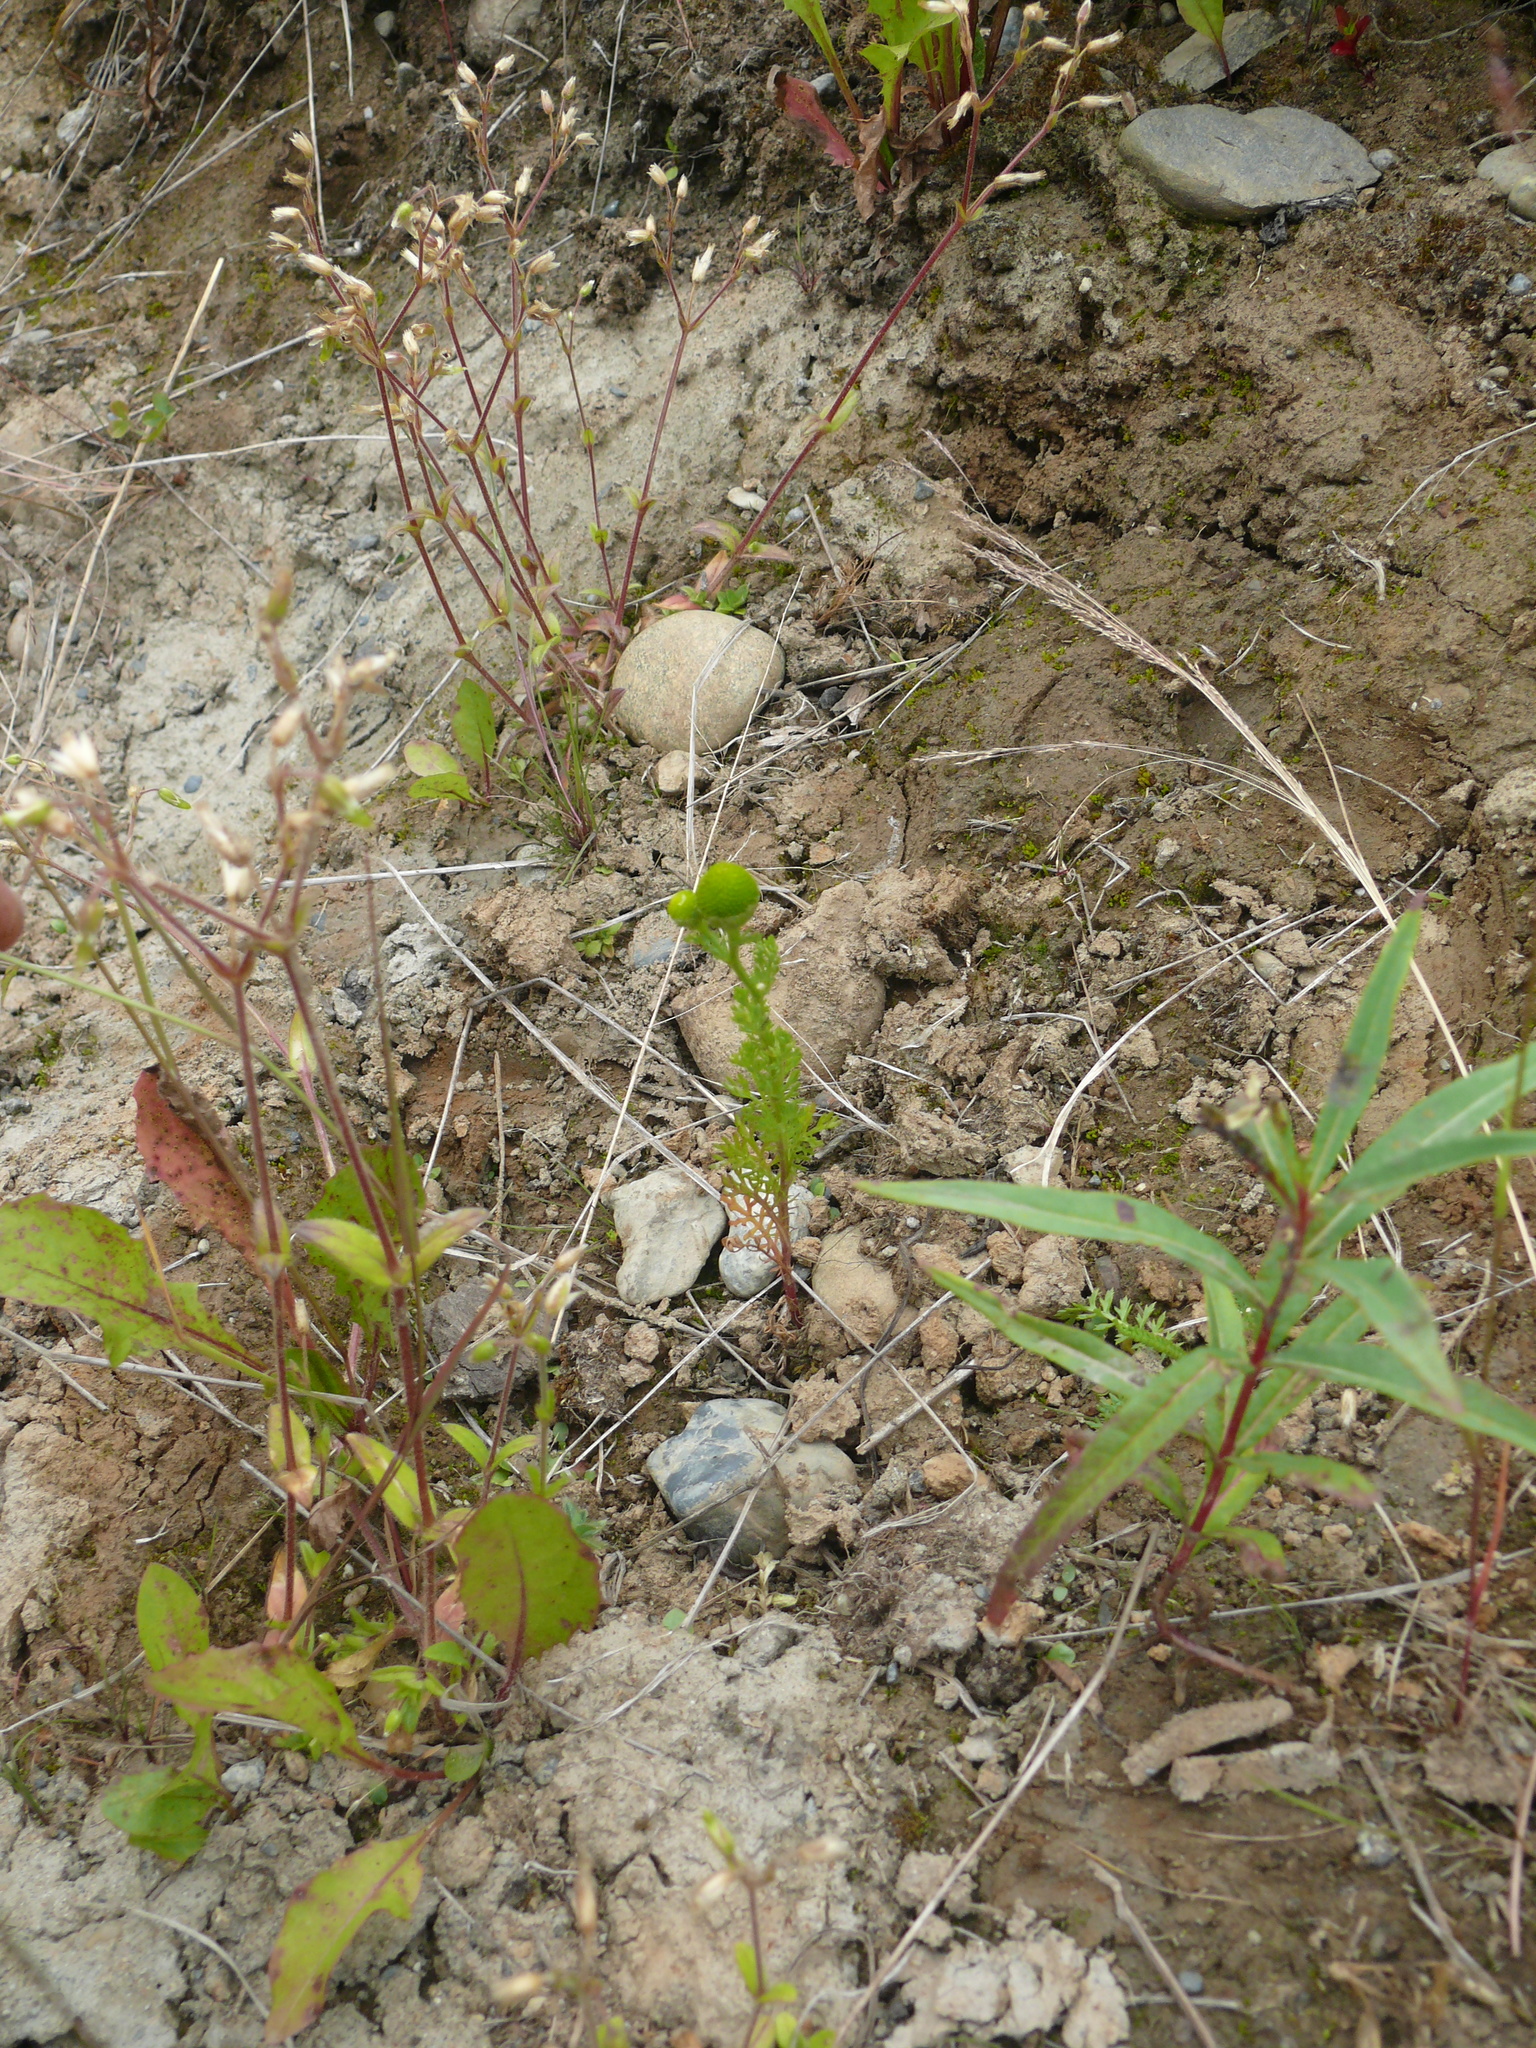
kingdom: Plantae
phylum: Tracheophyta
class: Magnoliopsida
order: Asterales
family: Asteraceae
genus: Matricaria
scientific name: Matricaria discoidea
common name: Disc mayweed
